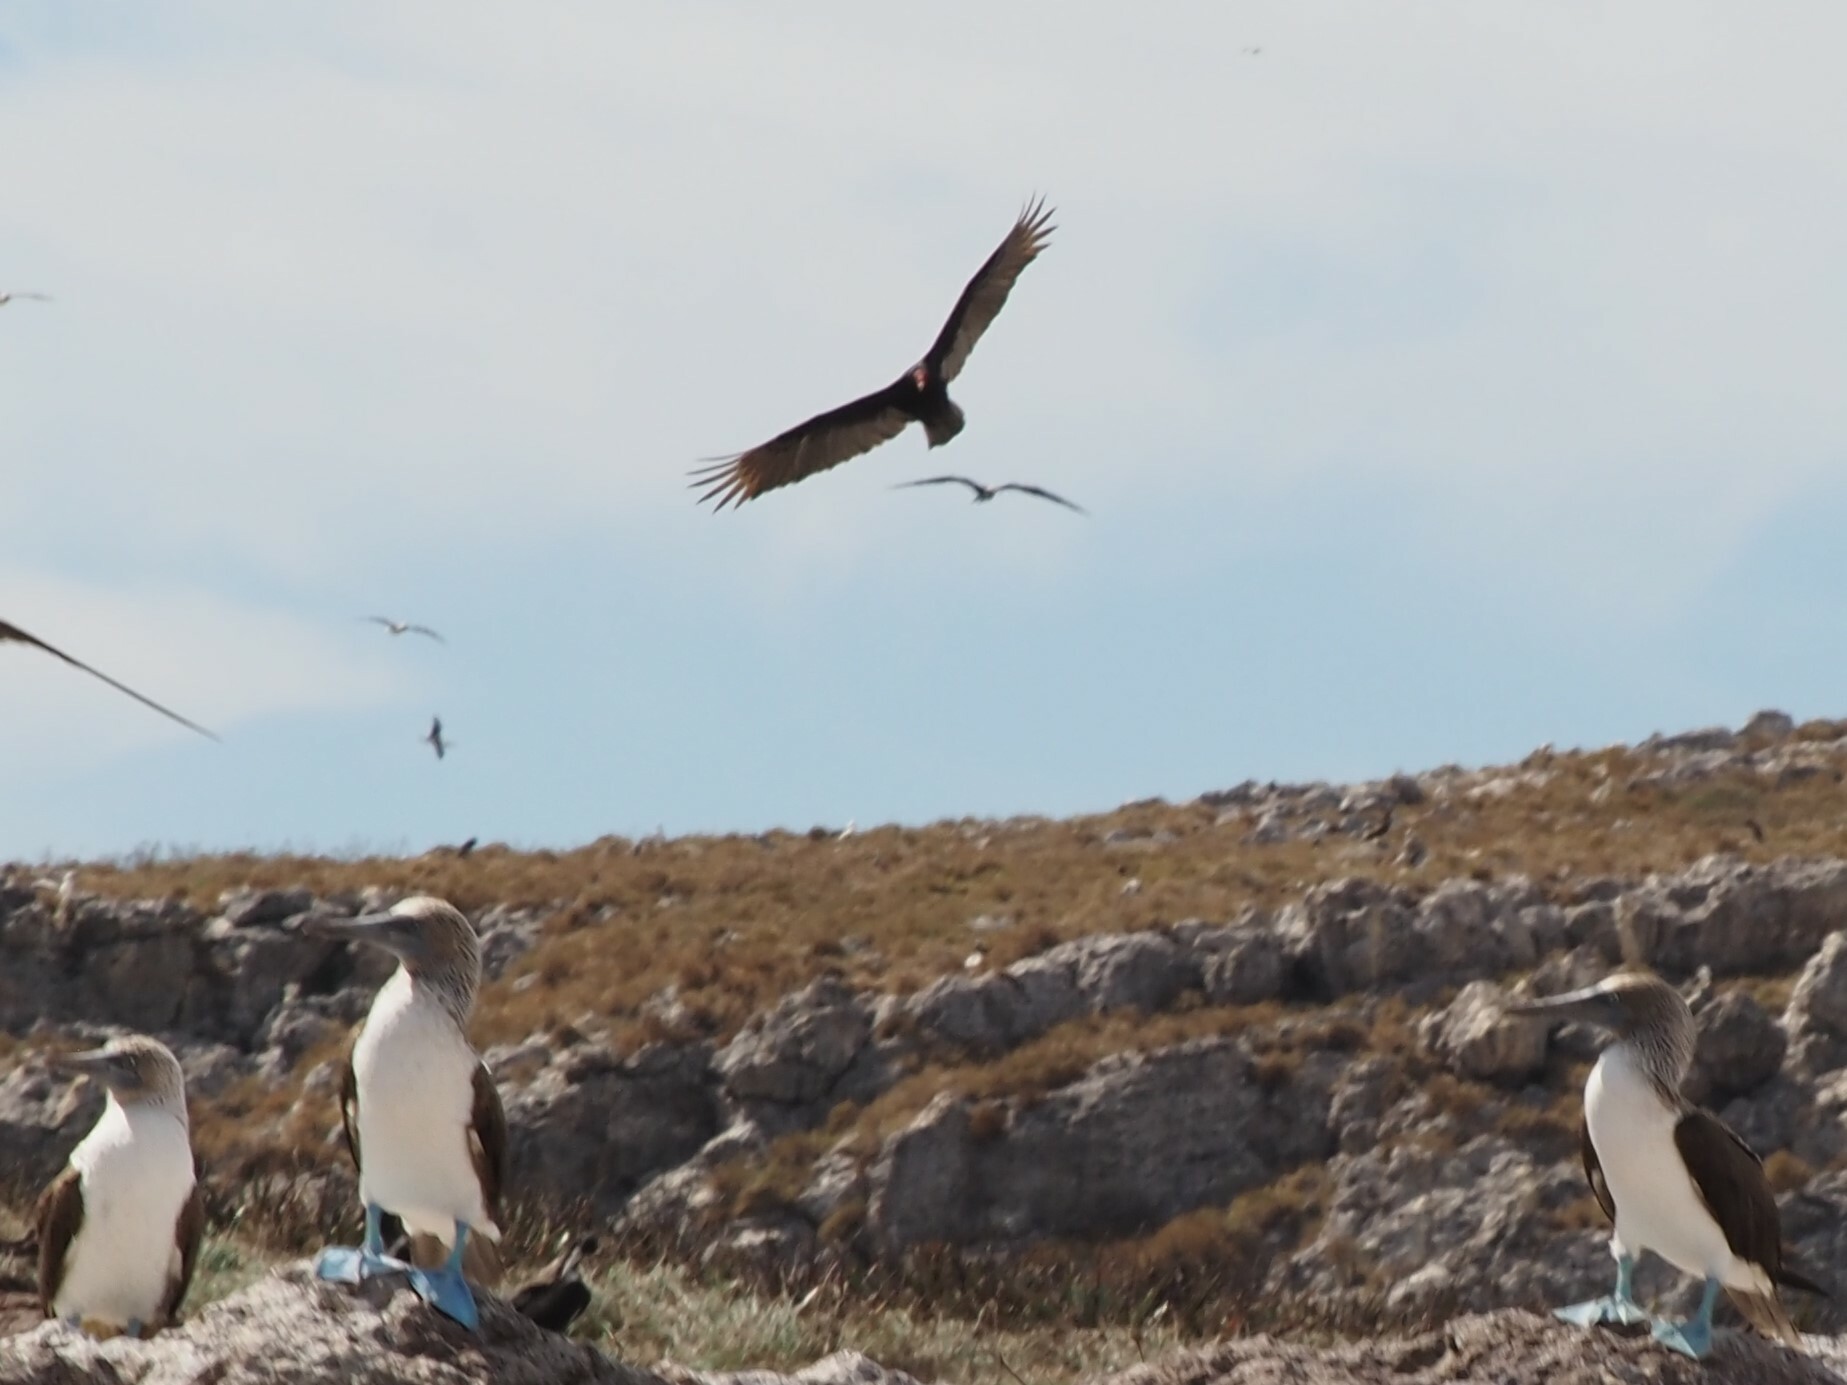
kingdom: Animalia
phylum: Chordata
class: Aves
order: Accipitriformes
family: Cathartidae
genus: Cathartes
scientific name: Cathartes aura
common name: Turkey vulture
